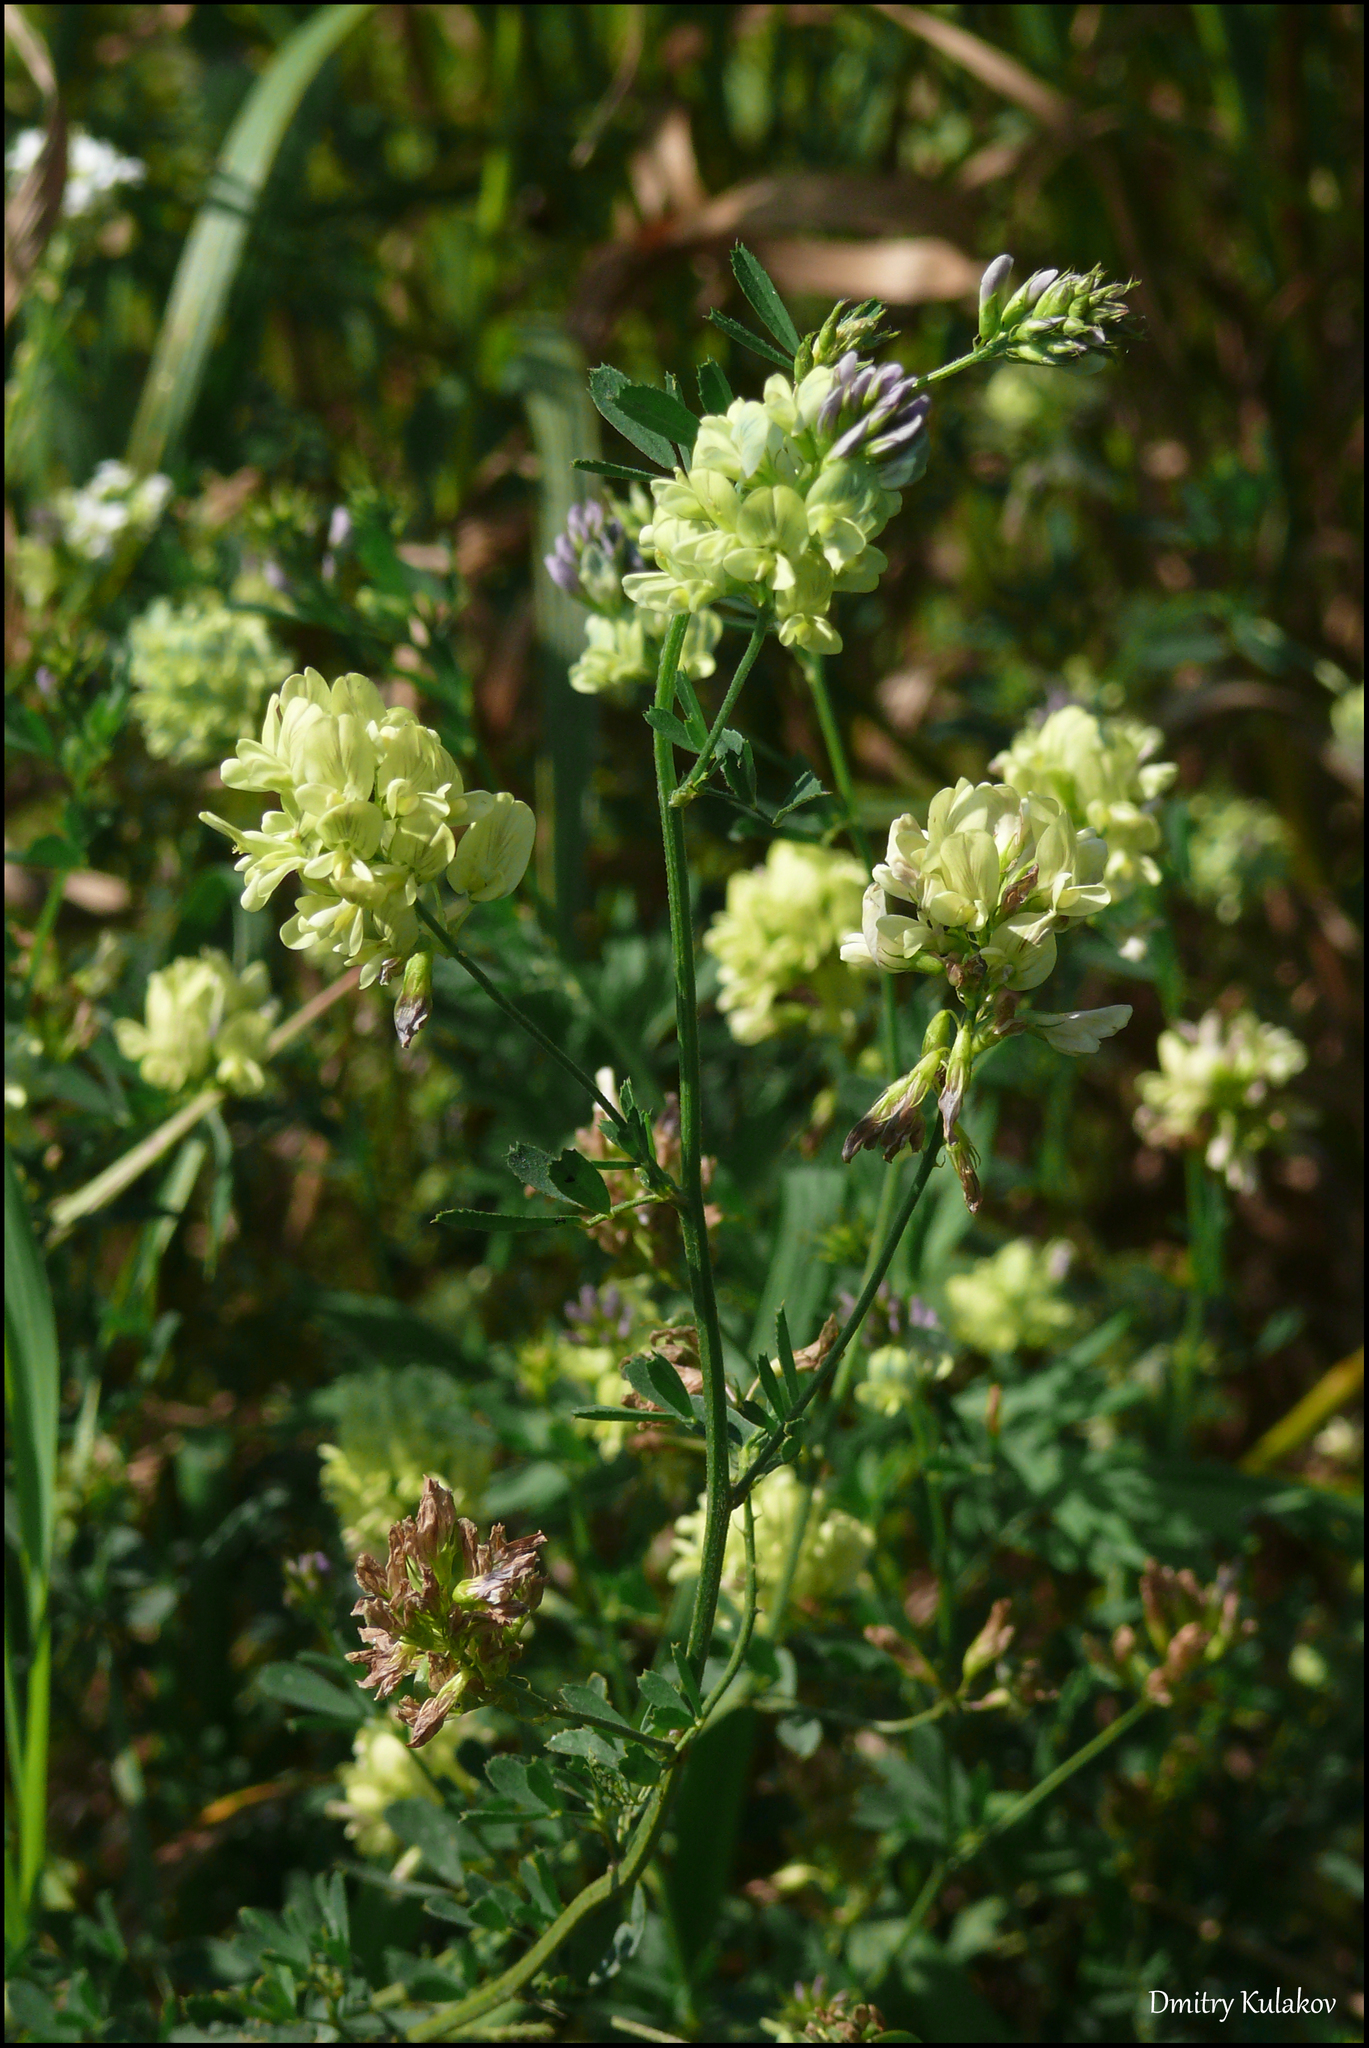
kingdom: Plantae
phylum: Tracheophyta
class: Magnoliopsida
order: Fabales
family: Fabaceae
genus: Medicago
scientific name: Medicago varia
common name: Sand lucerne
